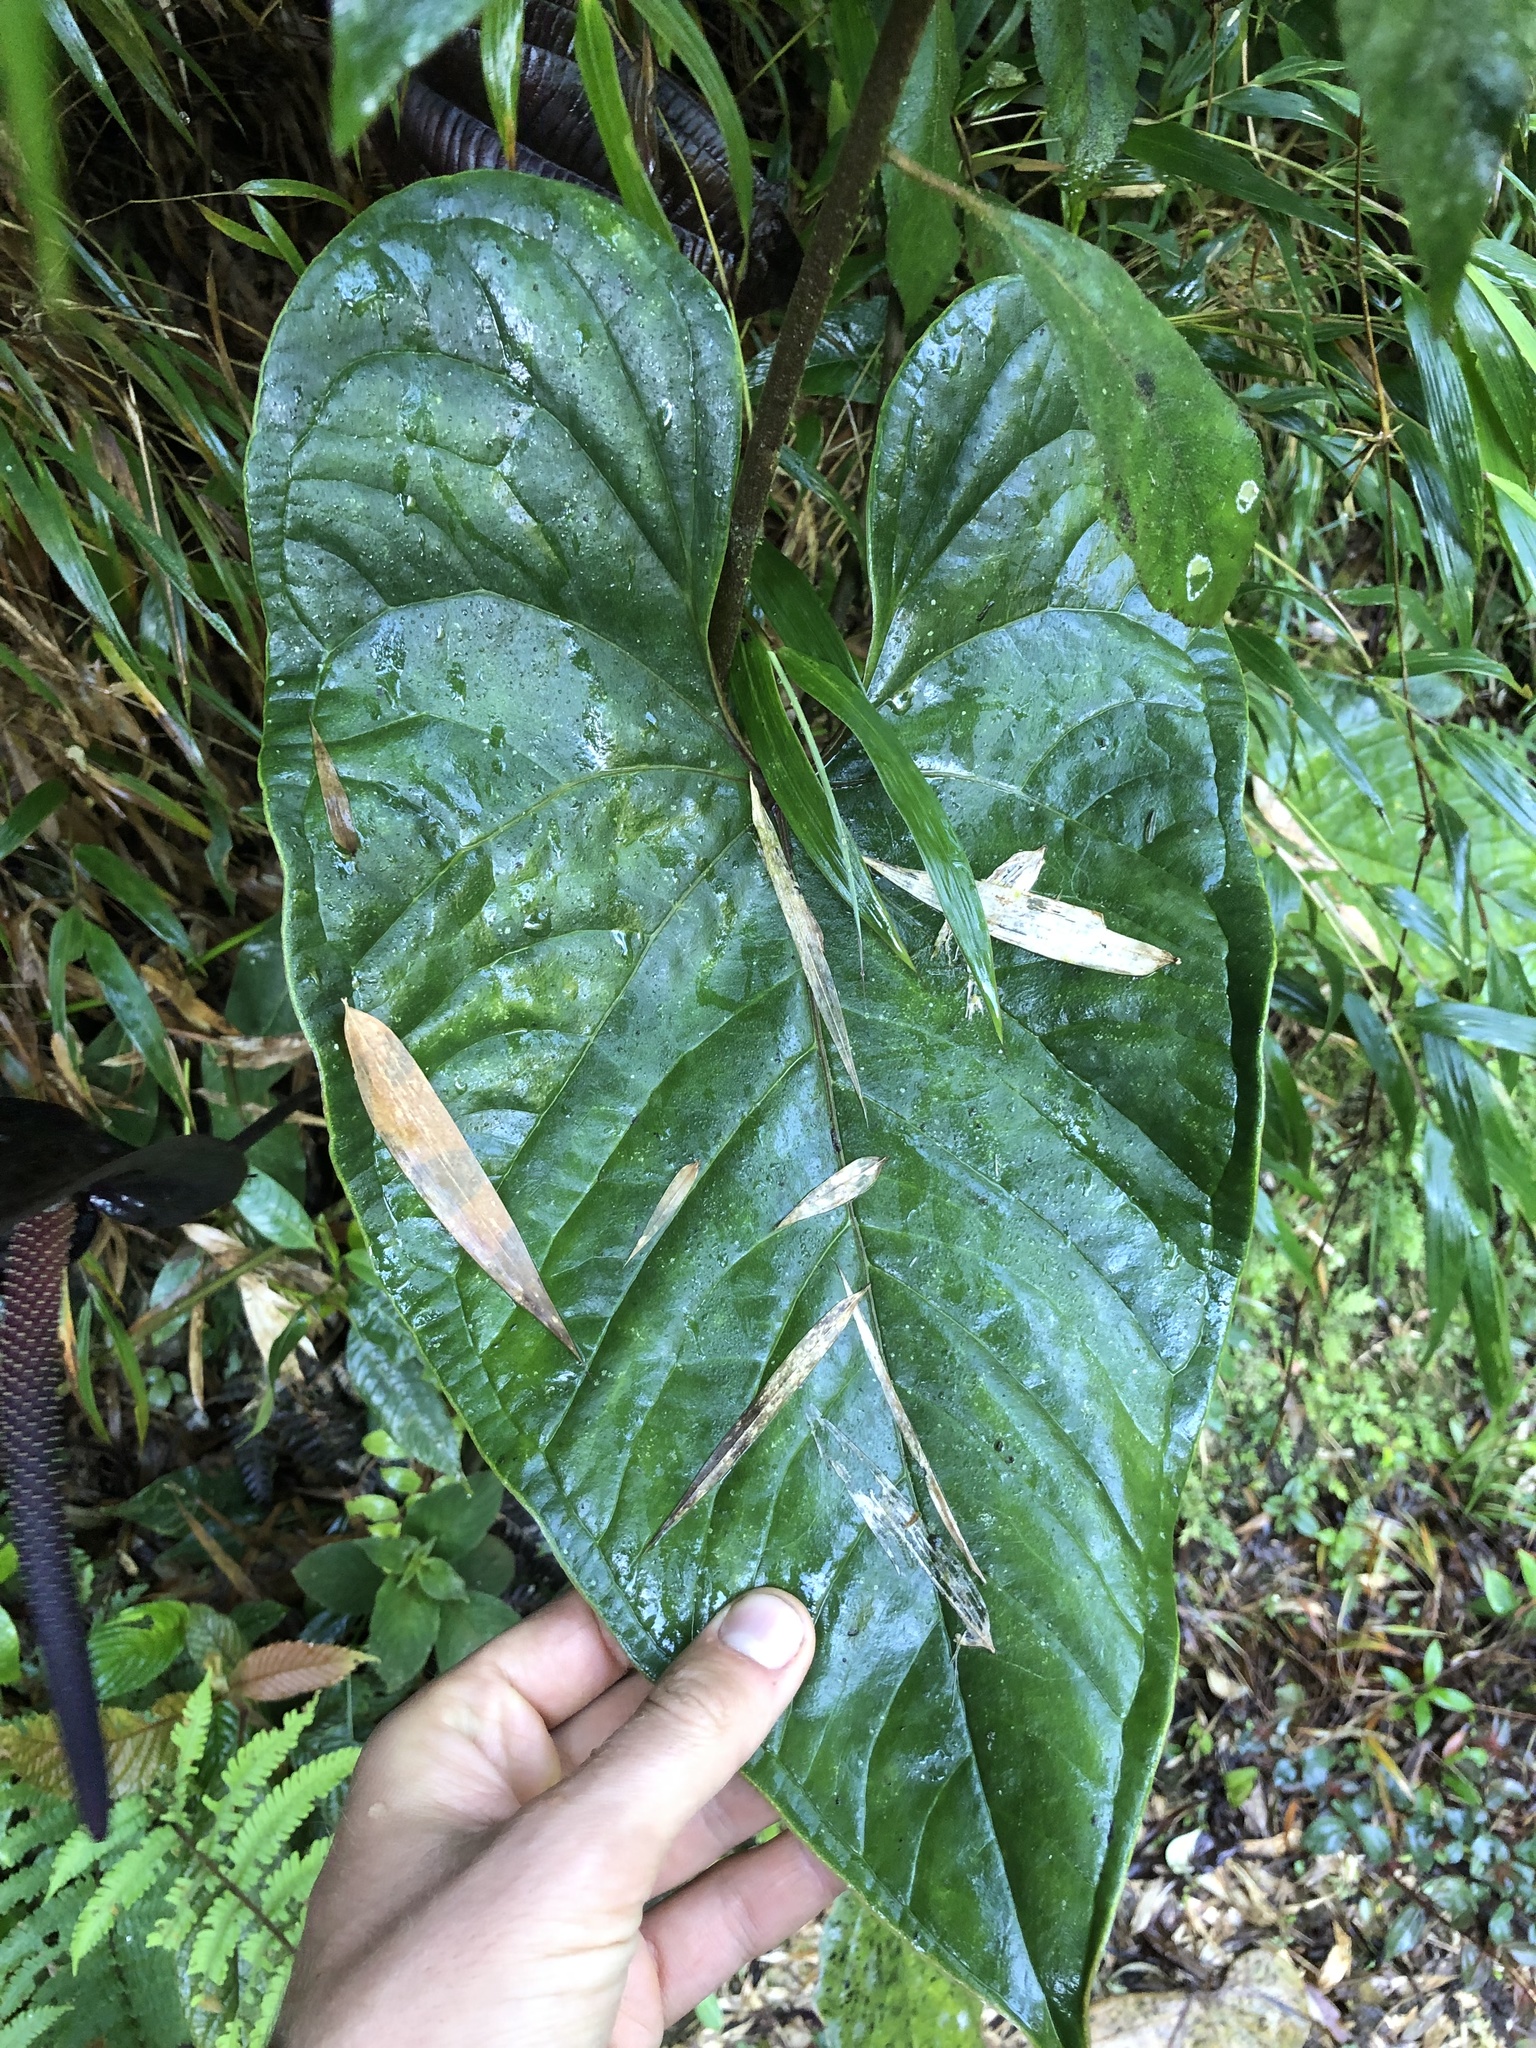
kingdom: Plantae
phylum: Tracheophyta
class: Liliopsida
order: Alismatales
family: Araceae
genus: Anthurium
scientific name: Anthurium caramantae
